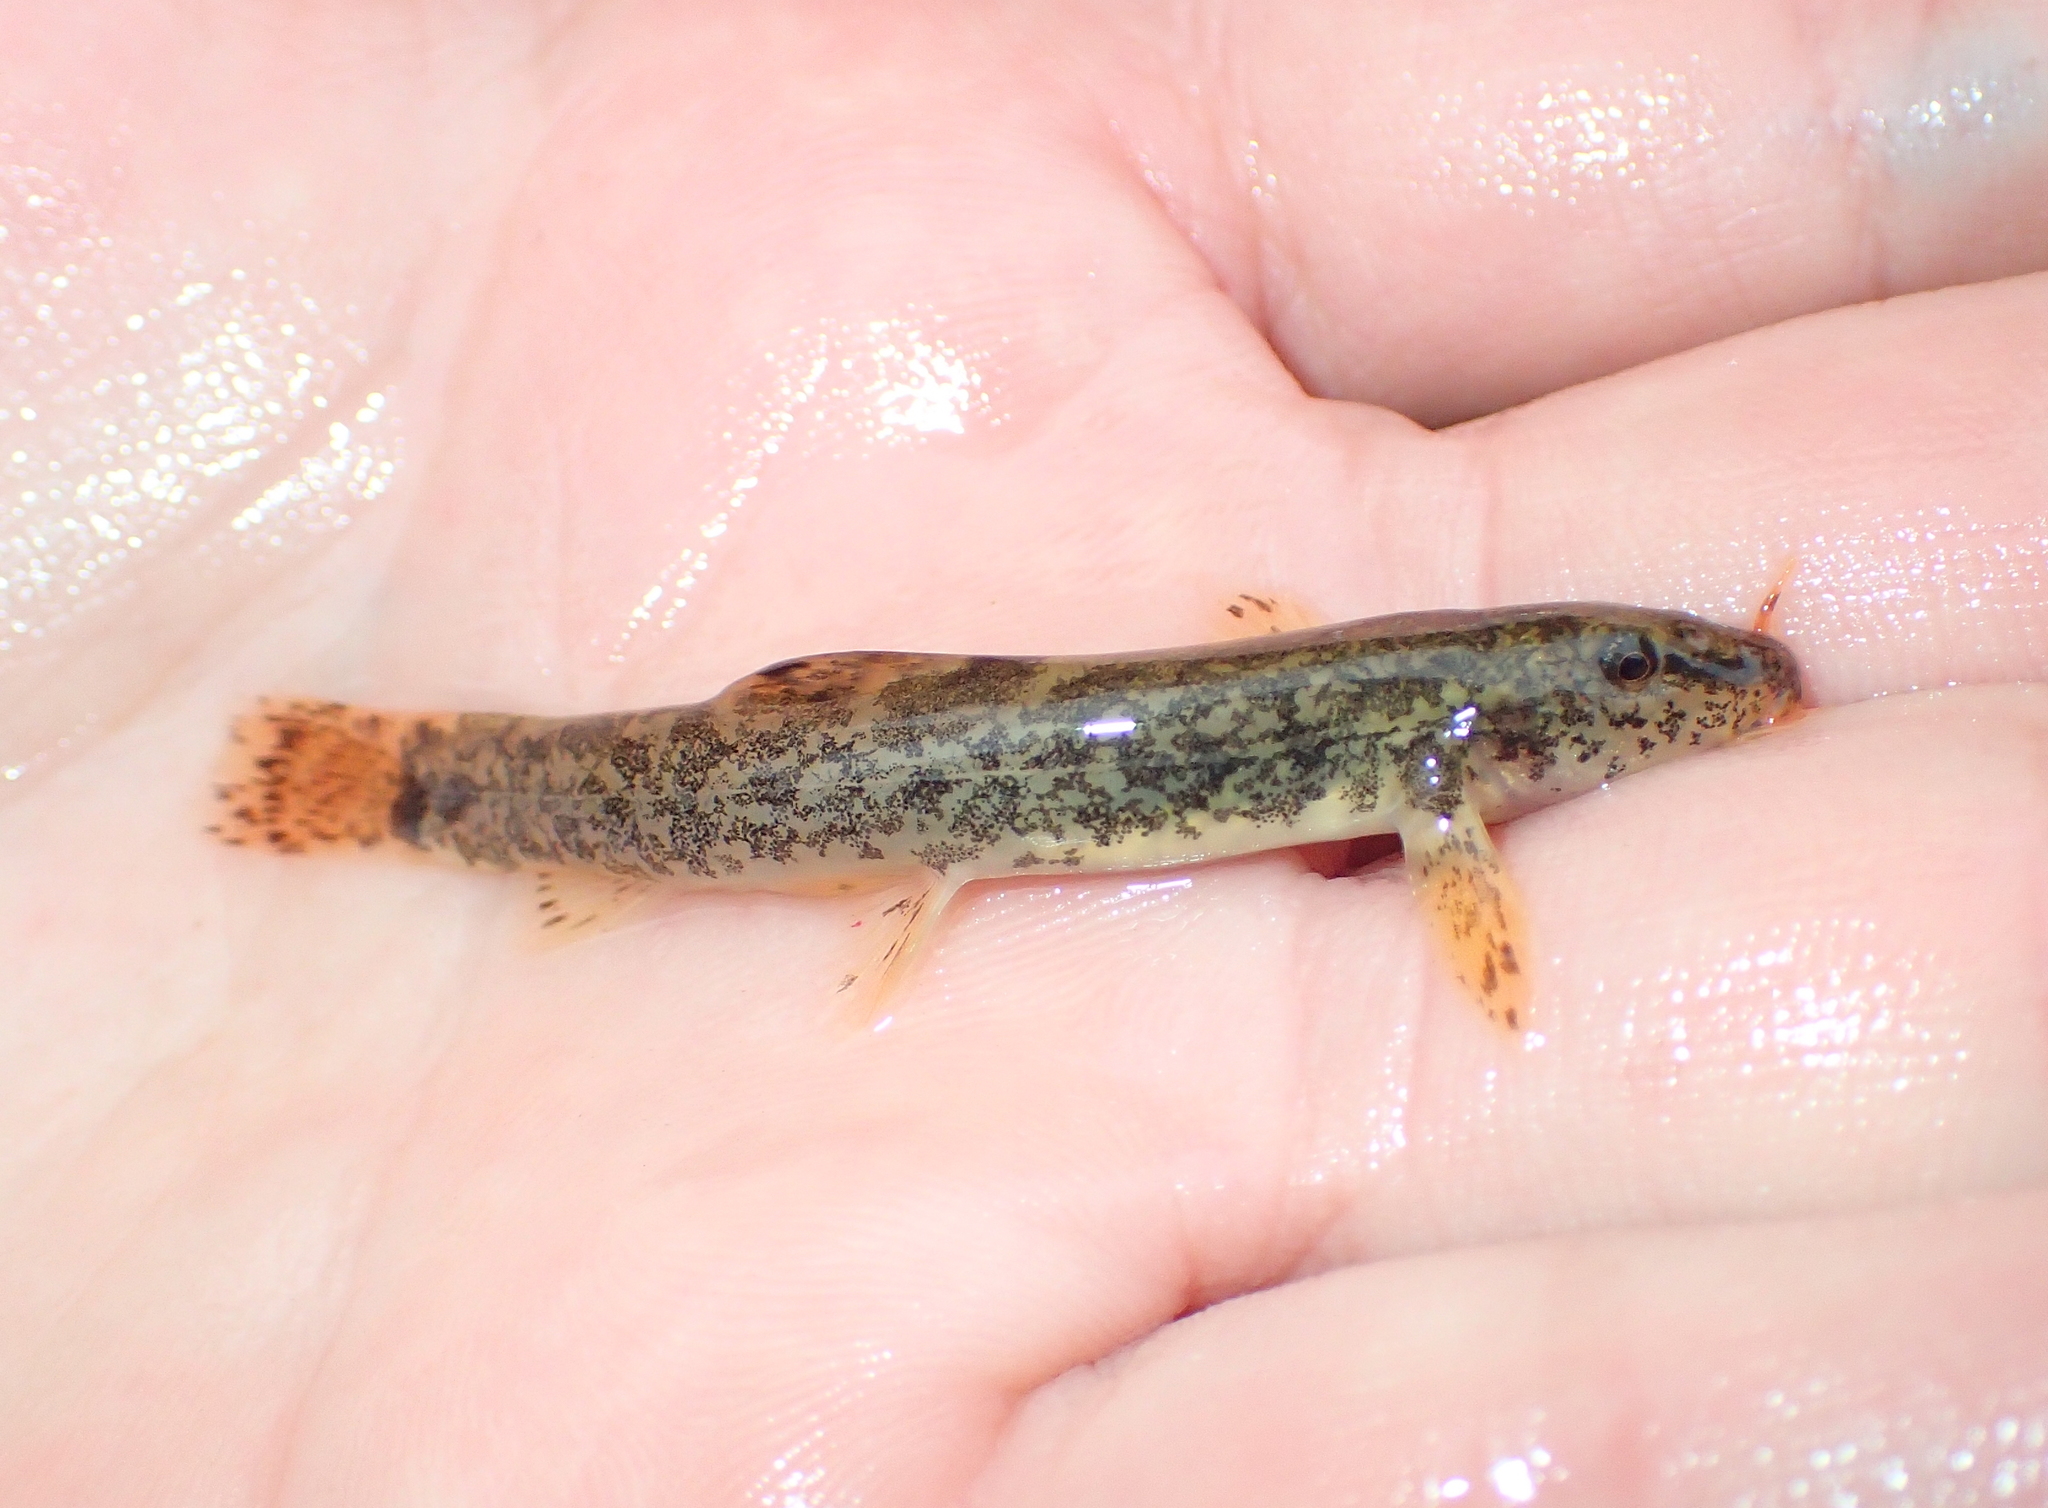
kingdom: Animalia
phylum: Chordata
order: Cypriniformes
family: Nemacheilidae
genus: Barbatula
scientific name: Barbatula barbatula
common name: Stone loach
